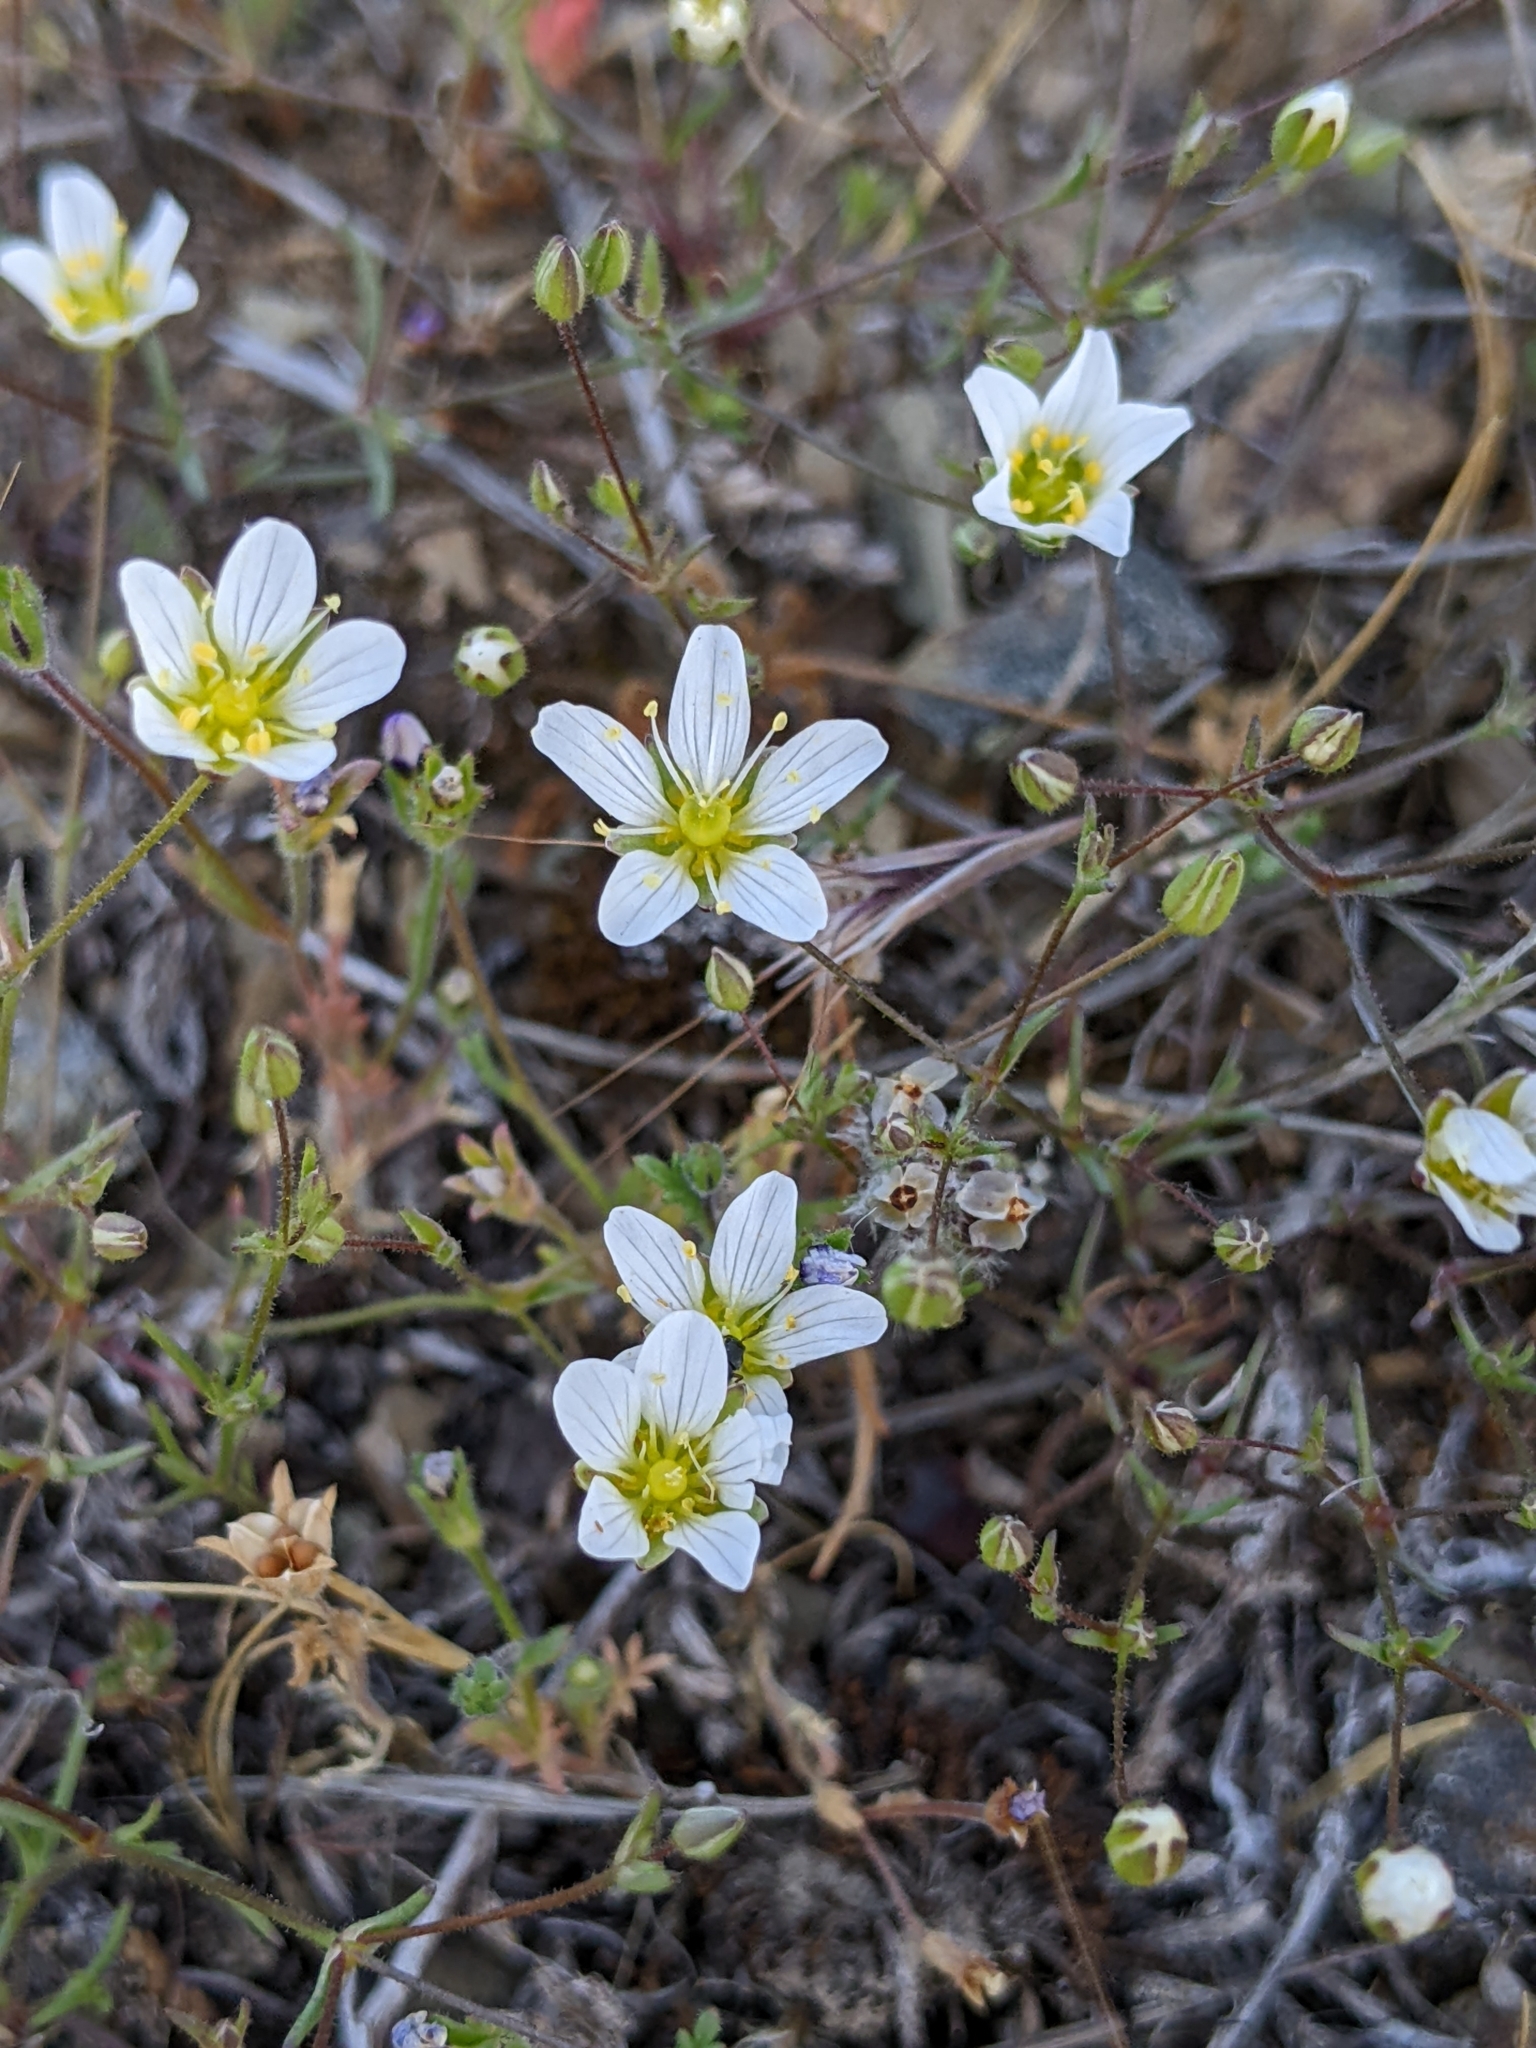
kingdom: Plantae
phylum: Tracheophyta
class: Magnoliopsida
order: Caryophyllales
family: Caryophyllaceae
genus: Sabulina
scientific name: Sabulina douglasii
